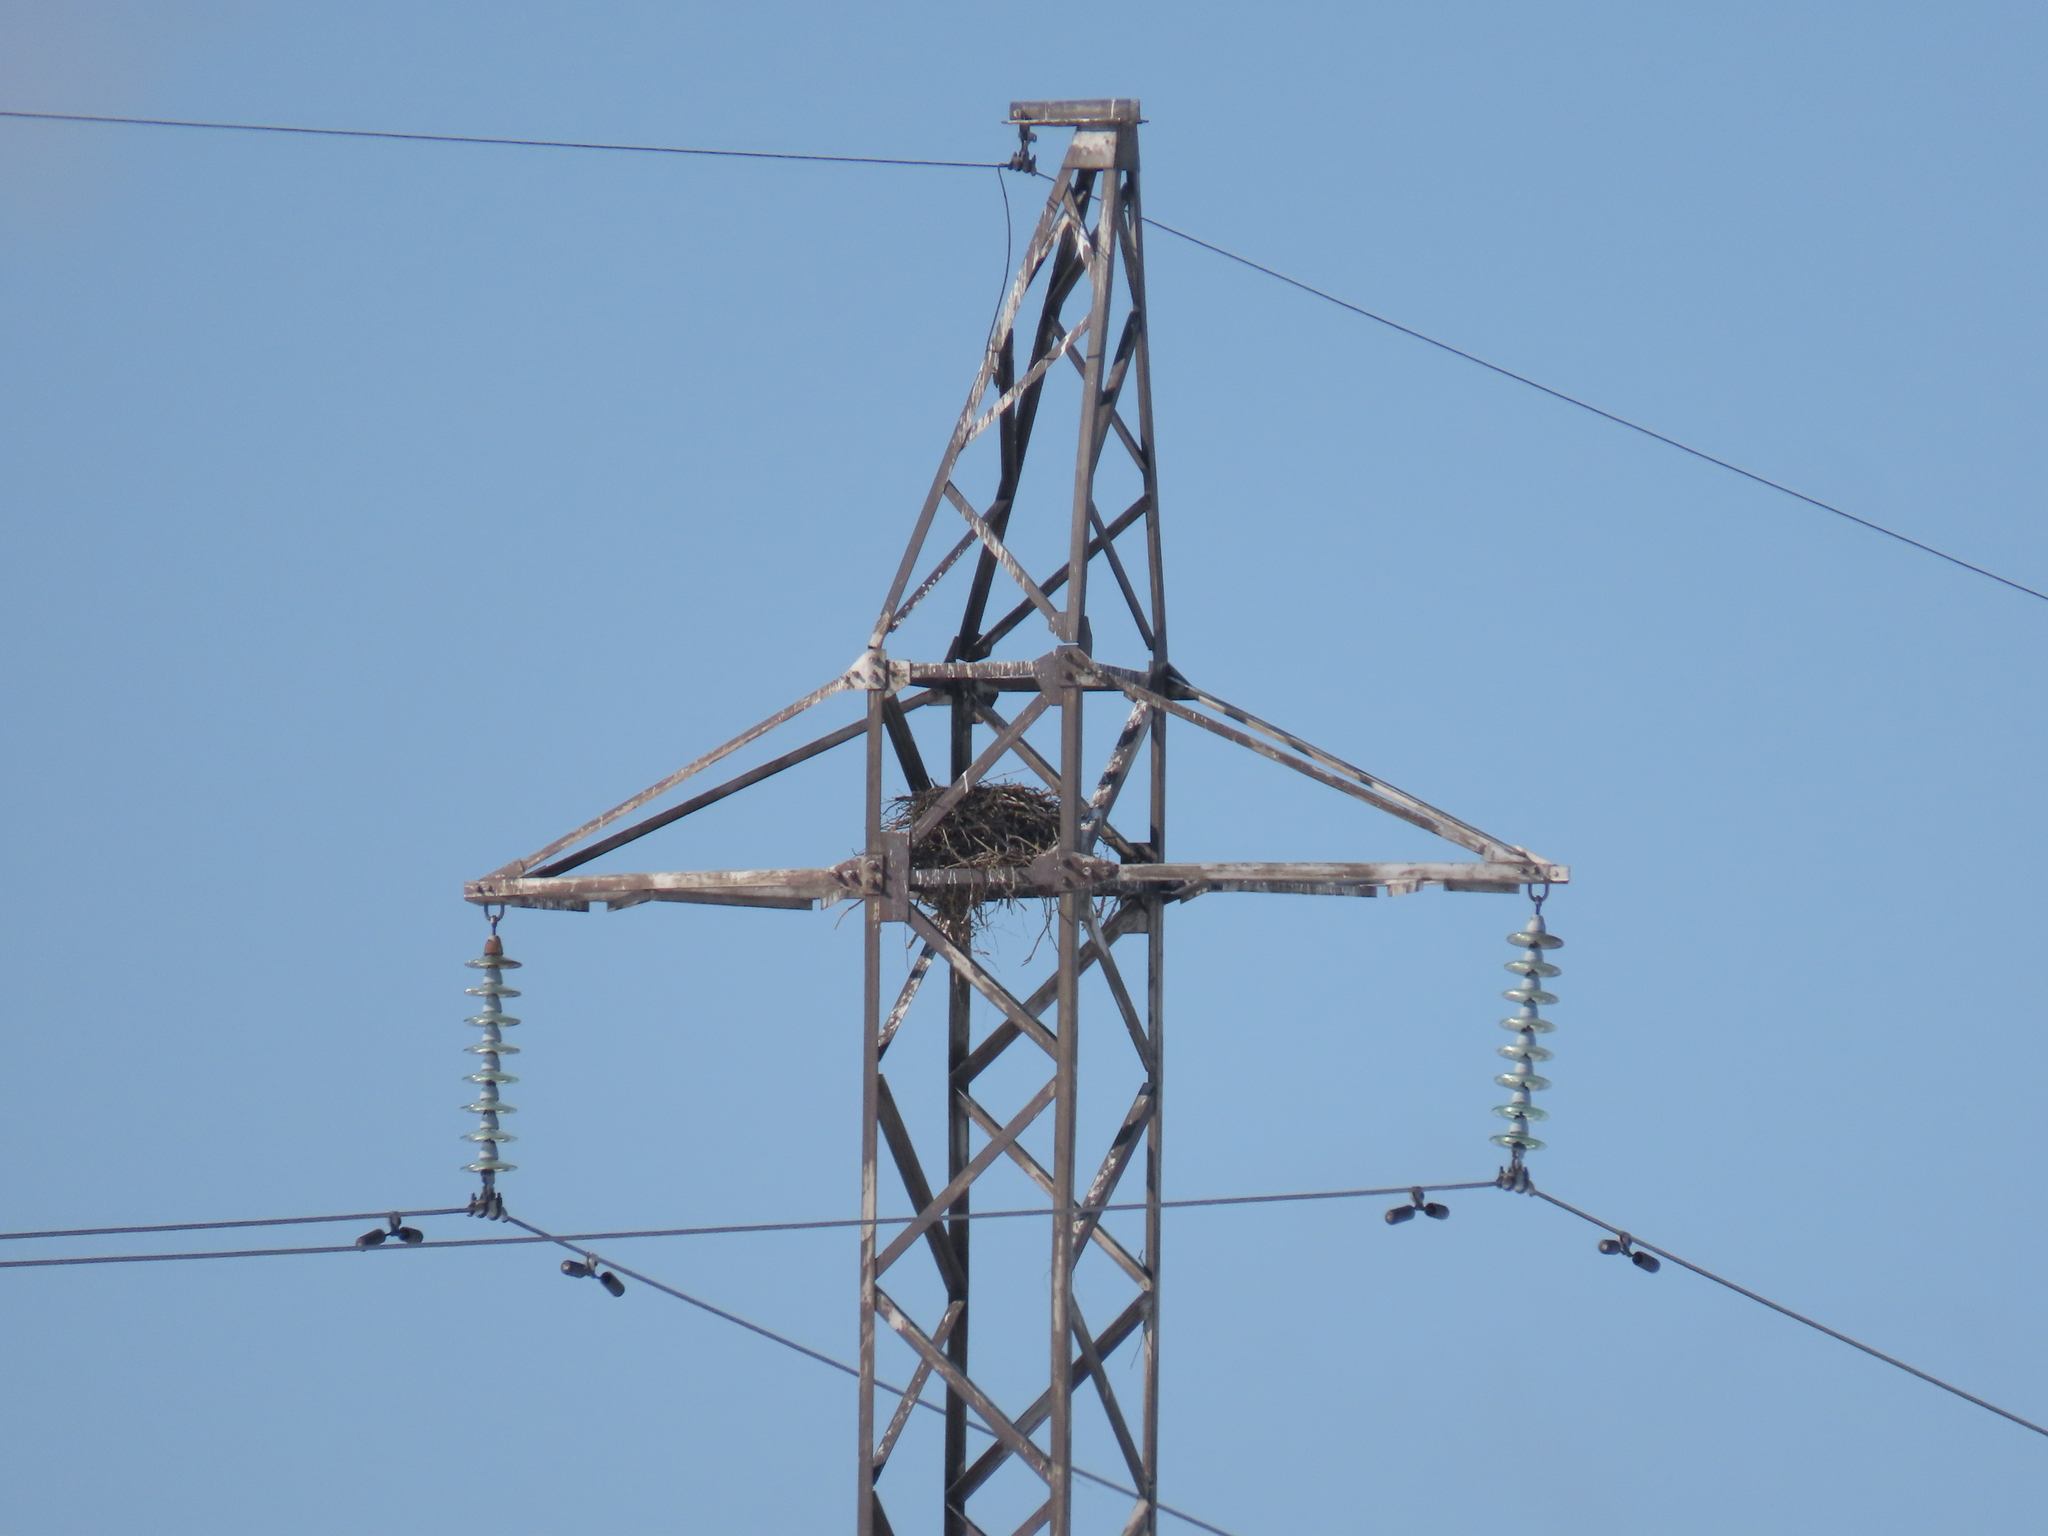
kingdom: Animalia
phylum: Chordata
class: Aves
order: Passeriformes
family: Corvidae
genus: Corvus
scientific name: Corvus corax
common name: Common raven
